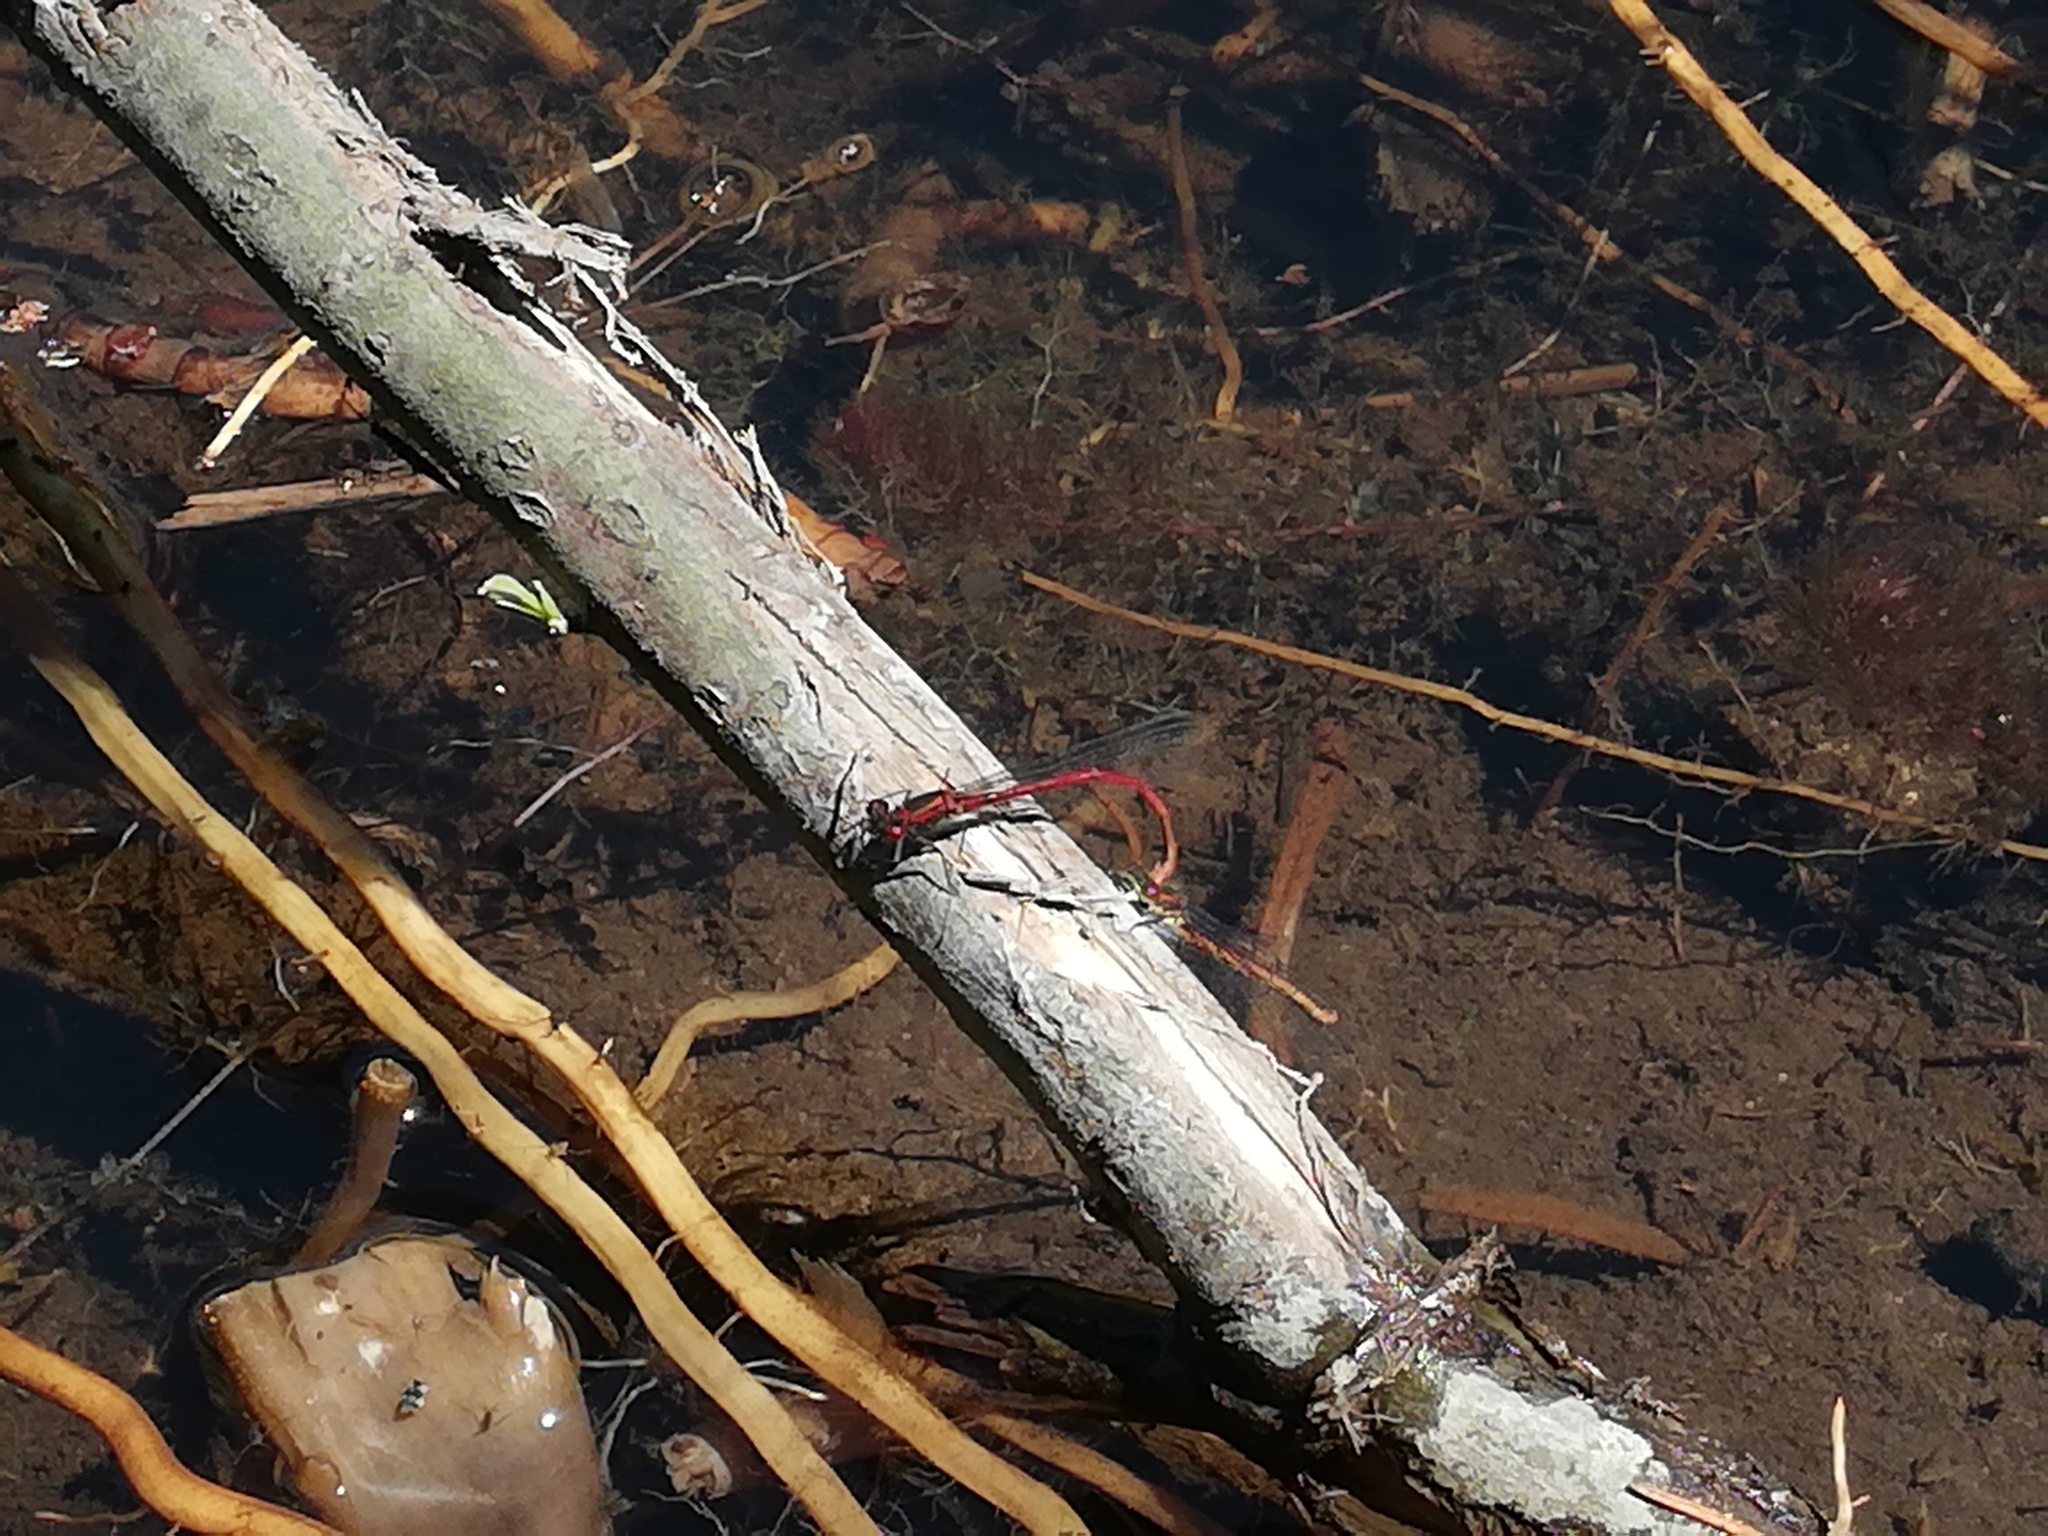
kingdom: Animalia
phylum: Arthropoda
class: Insecta
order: Odonata
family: Coenagrionidae
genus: Pyrrhosoma
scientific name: Pyrrhosoma nymphula
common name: Large red damsel
